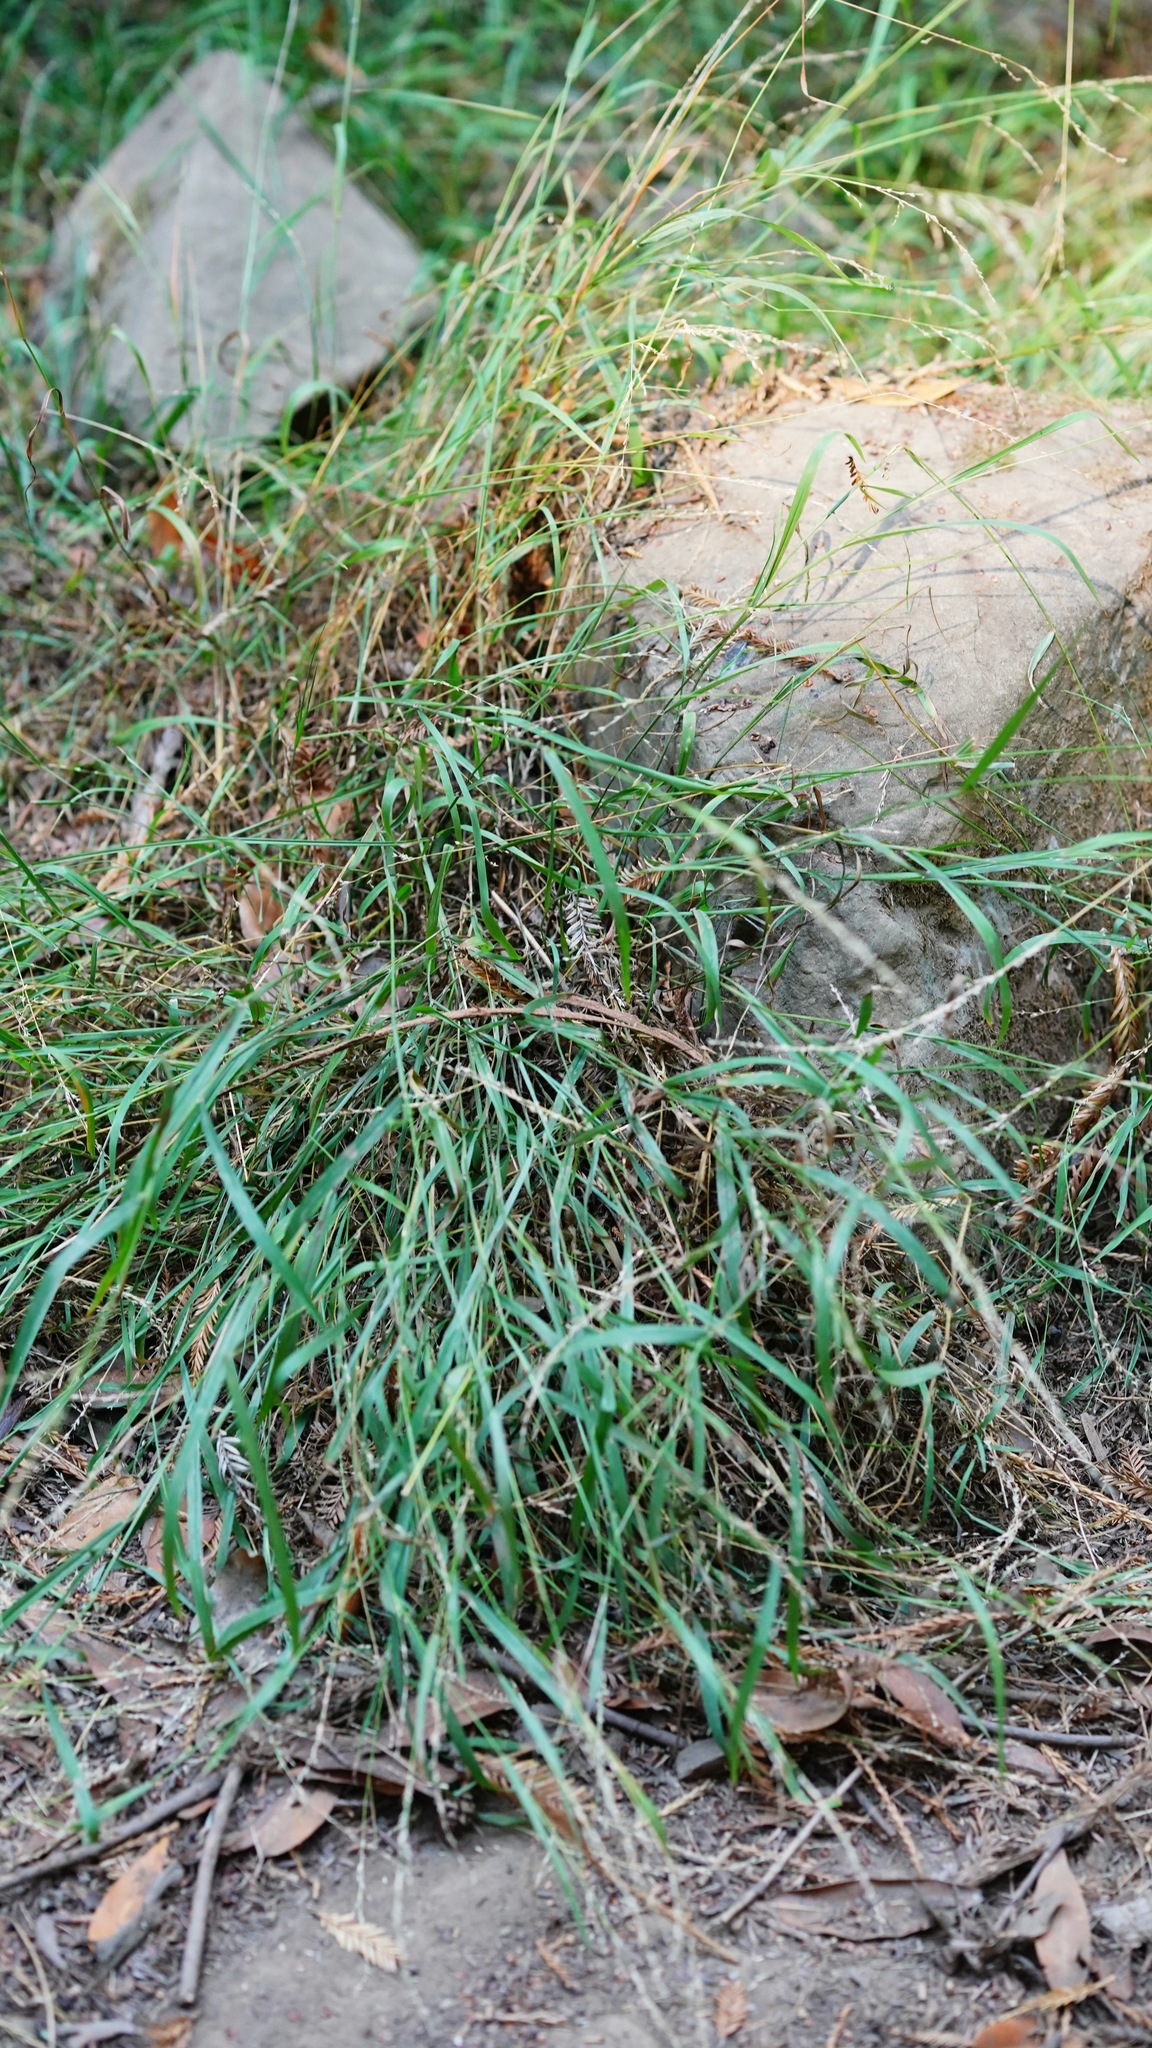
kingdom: Plantae
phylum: Tracheophyta
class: Liliopsida
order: Poales
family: Poaceae
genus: Ehrharta
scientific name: Ehrharta erecta
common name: Panic veldtgrass
